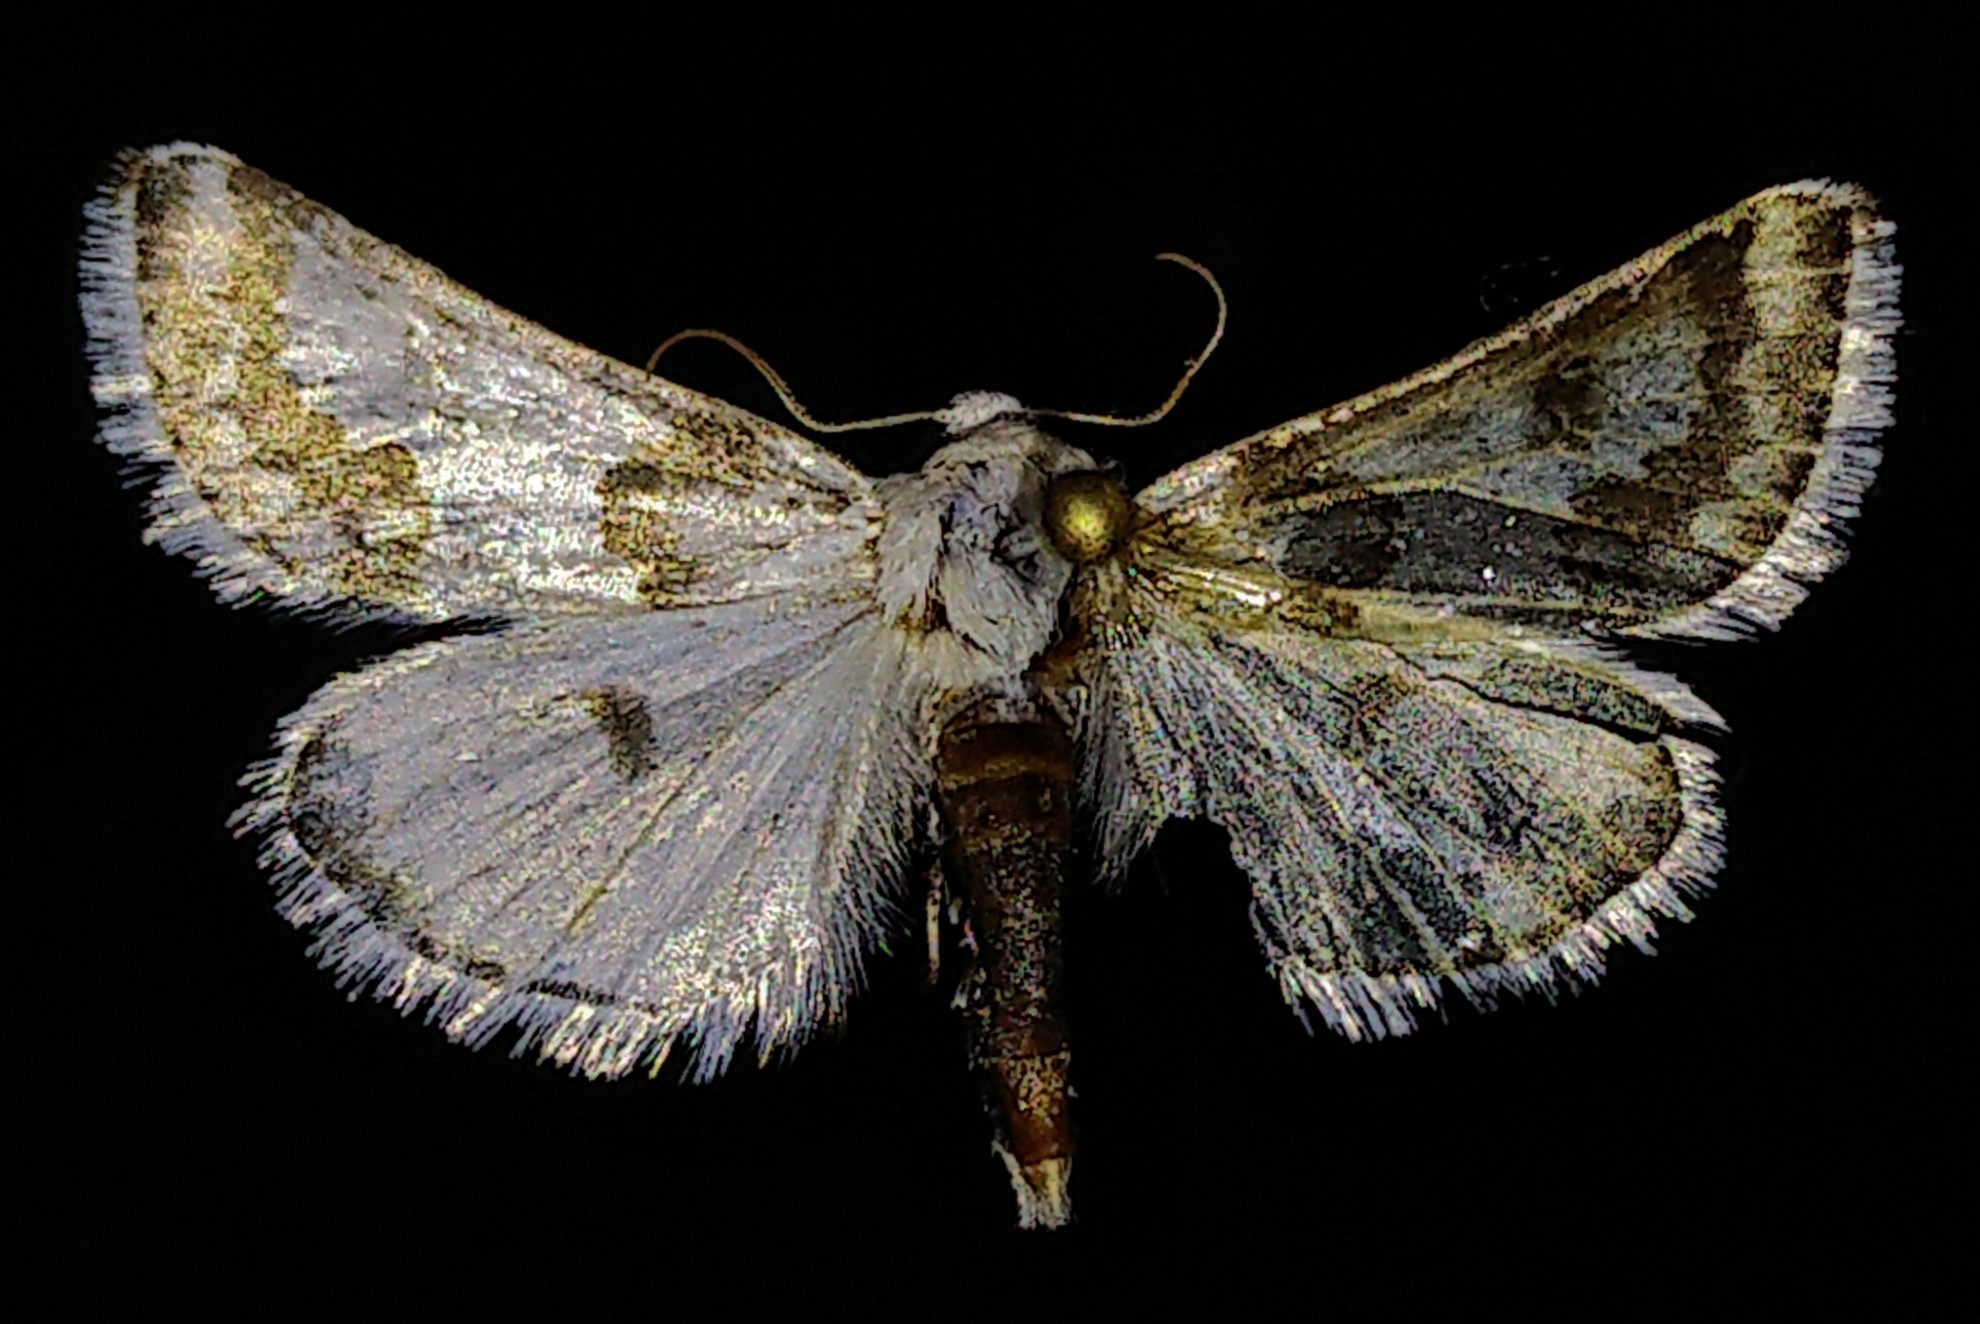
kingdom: Animalia
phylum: Arthropoda
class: Insecta
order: Lepidoptera
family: Noctuidae
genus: Schinia
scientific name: Schinia cumatilis
